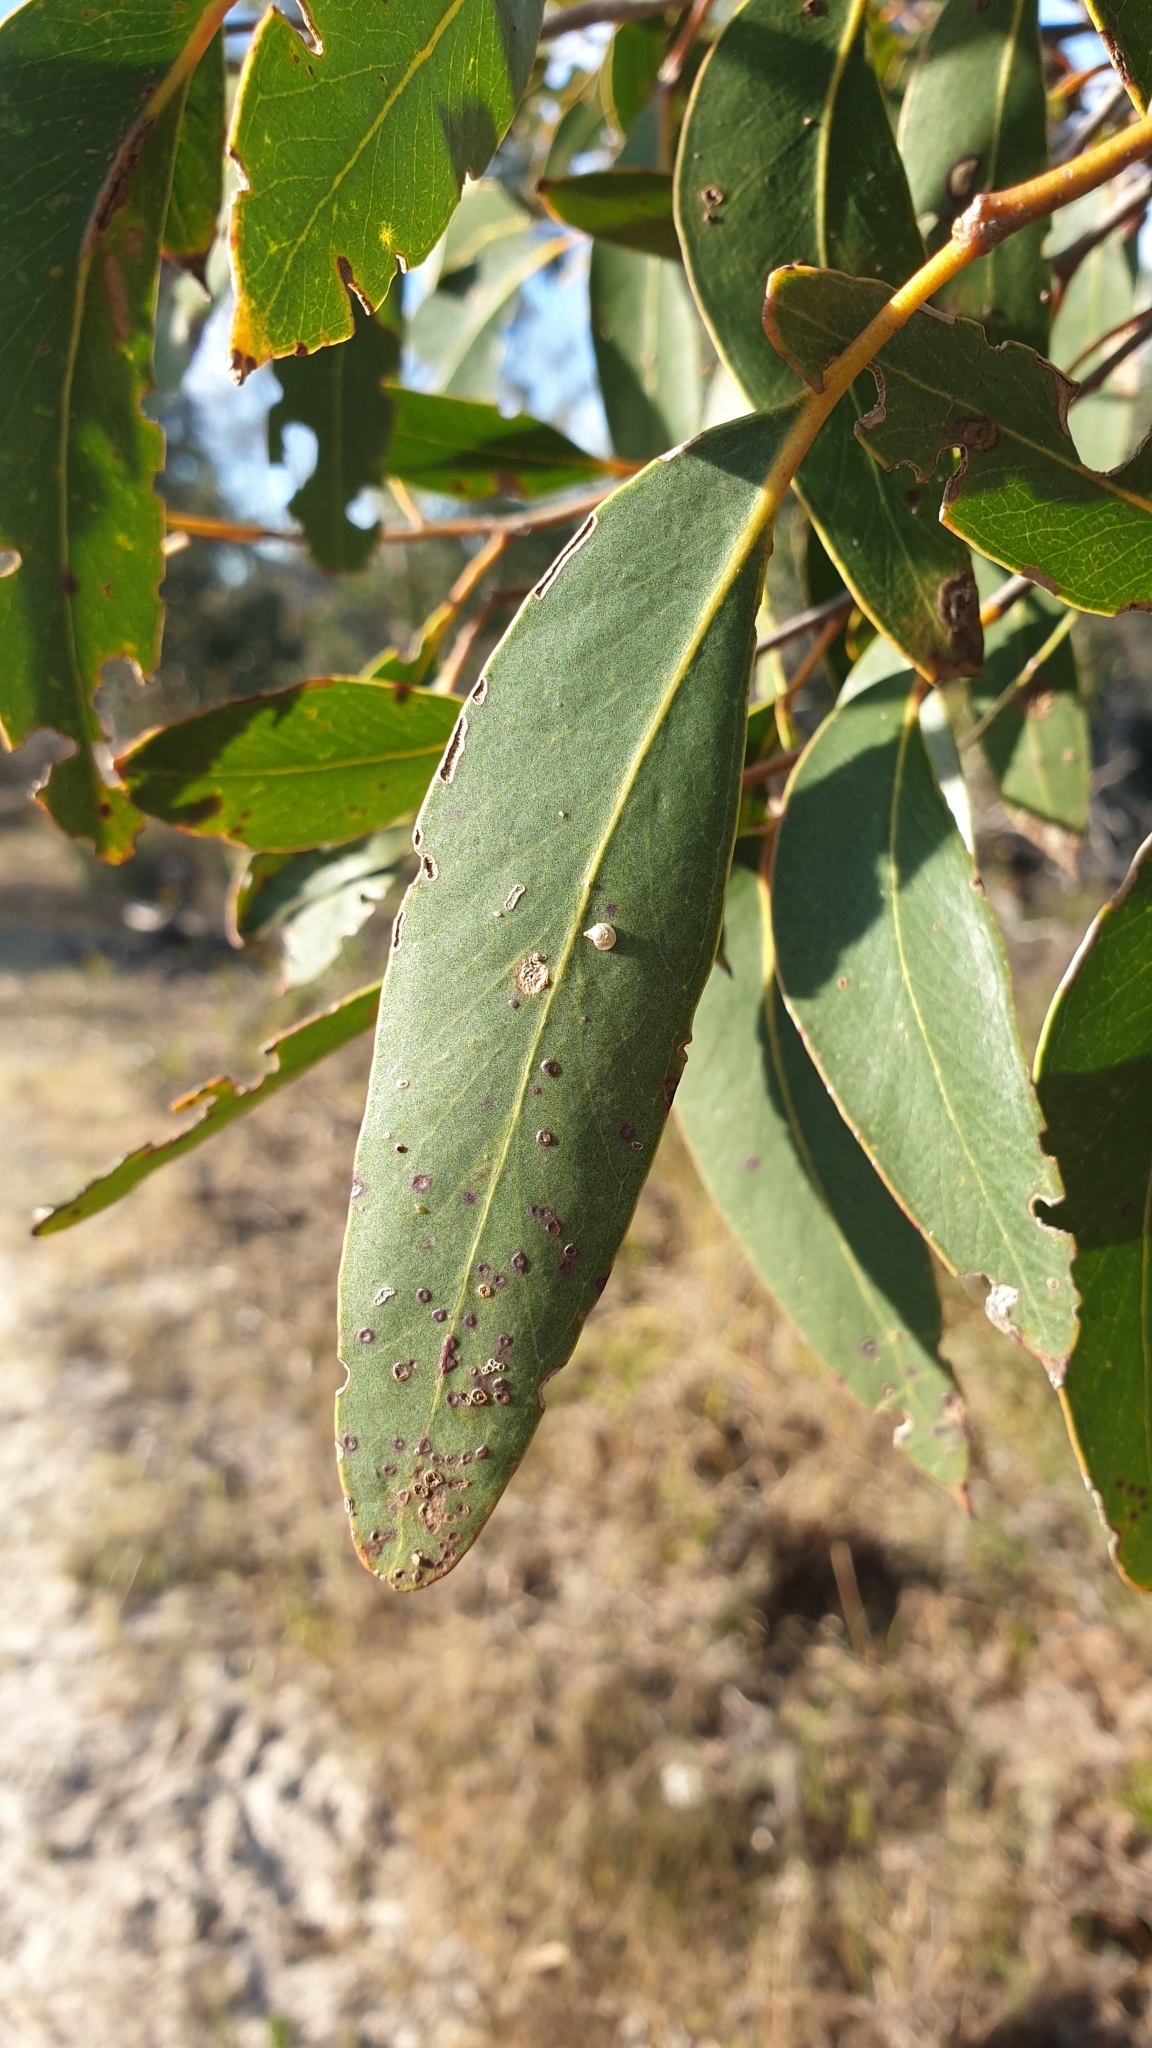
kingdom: Plantae
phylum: Tracheophyta
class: Magnoliopsida
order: Myrtales
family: Myrtaceae
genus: Eucalyptus
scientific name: Eucalyptus baxteri
